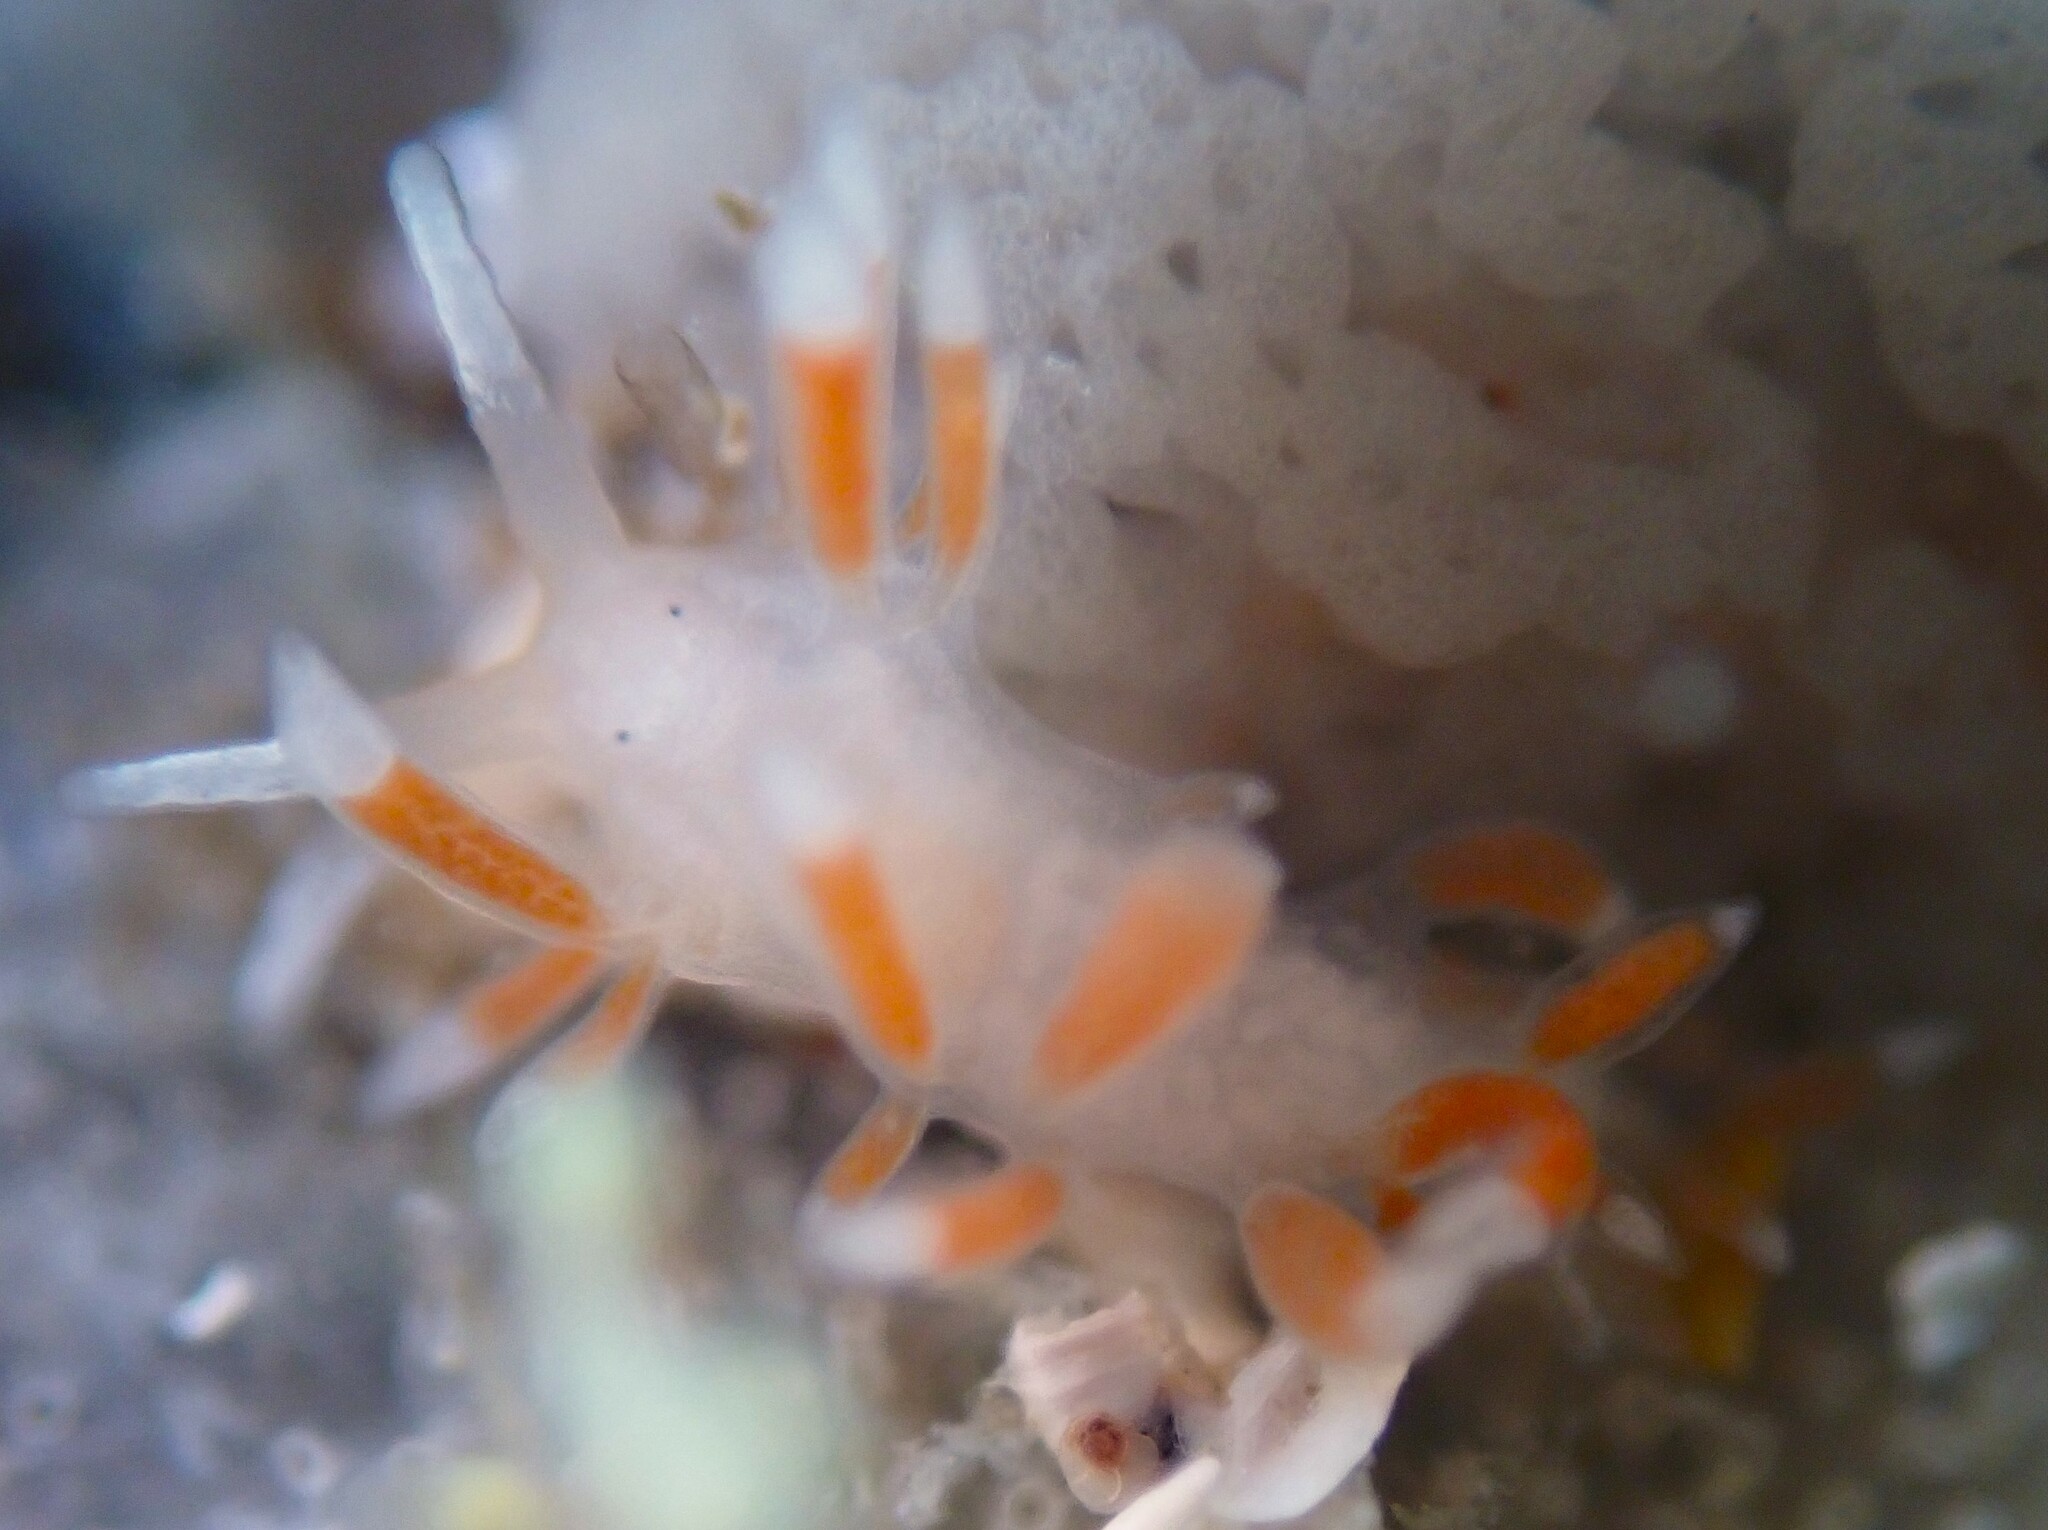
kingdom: Animalia
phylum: Mollusca
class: Gastropoda
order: Nudibranchia
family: Flabellinidae
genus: Coryphellina
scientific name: Coryphellina albomarginata
